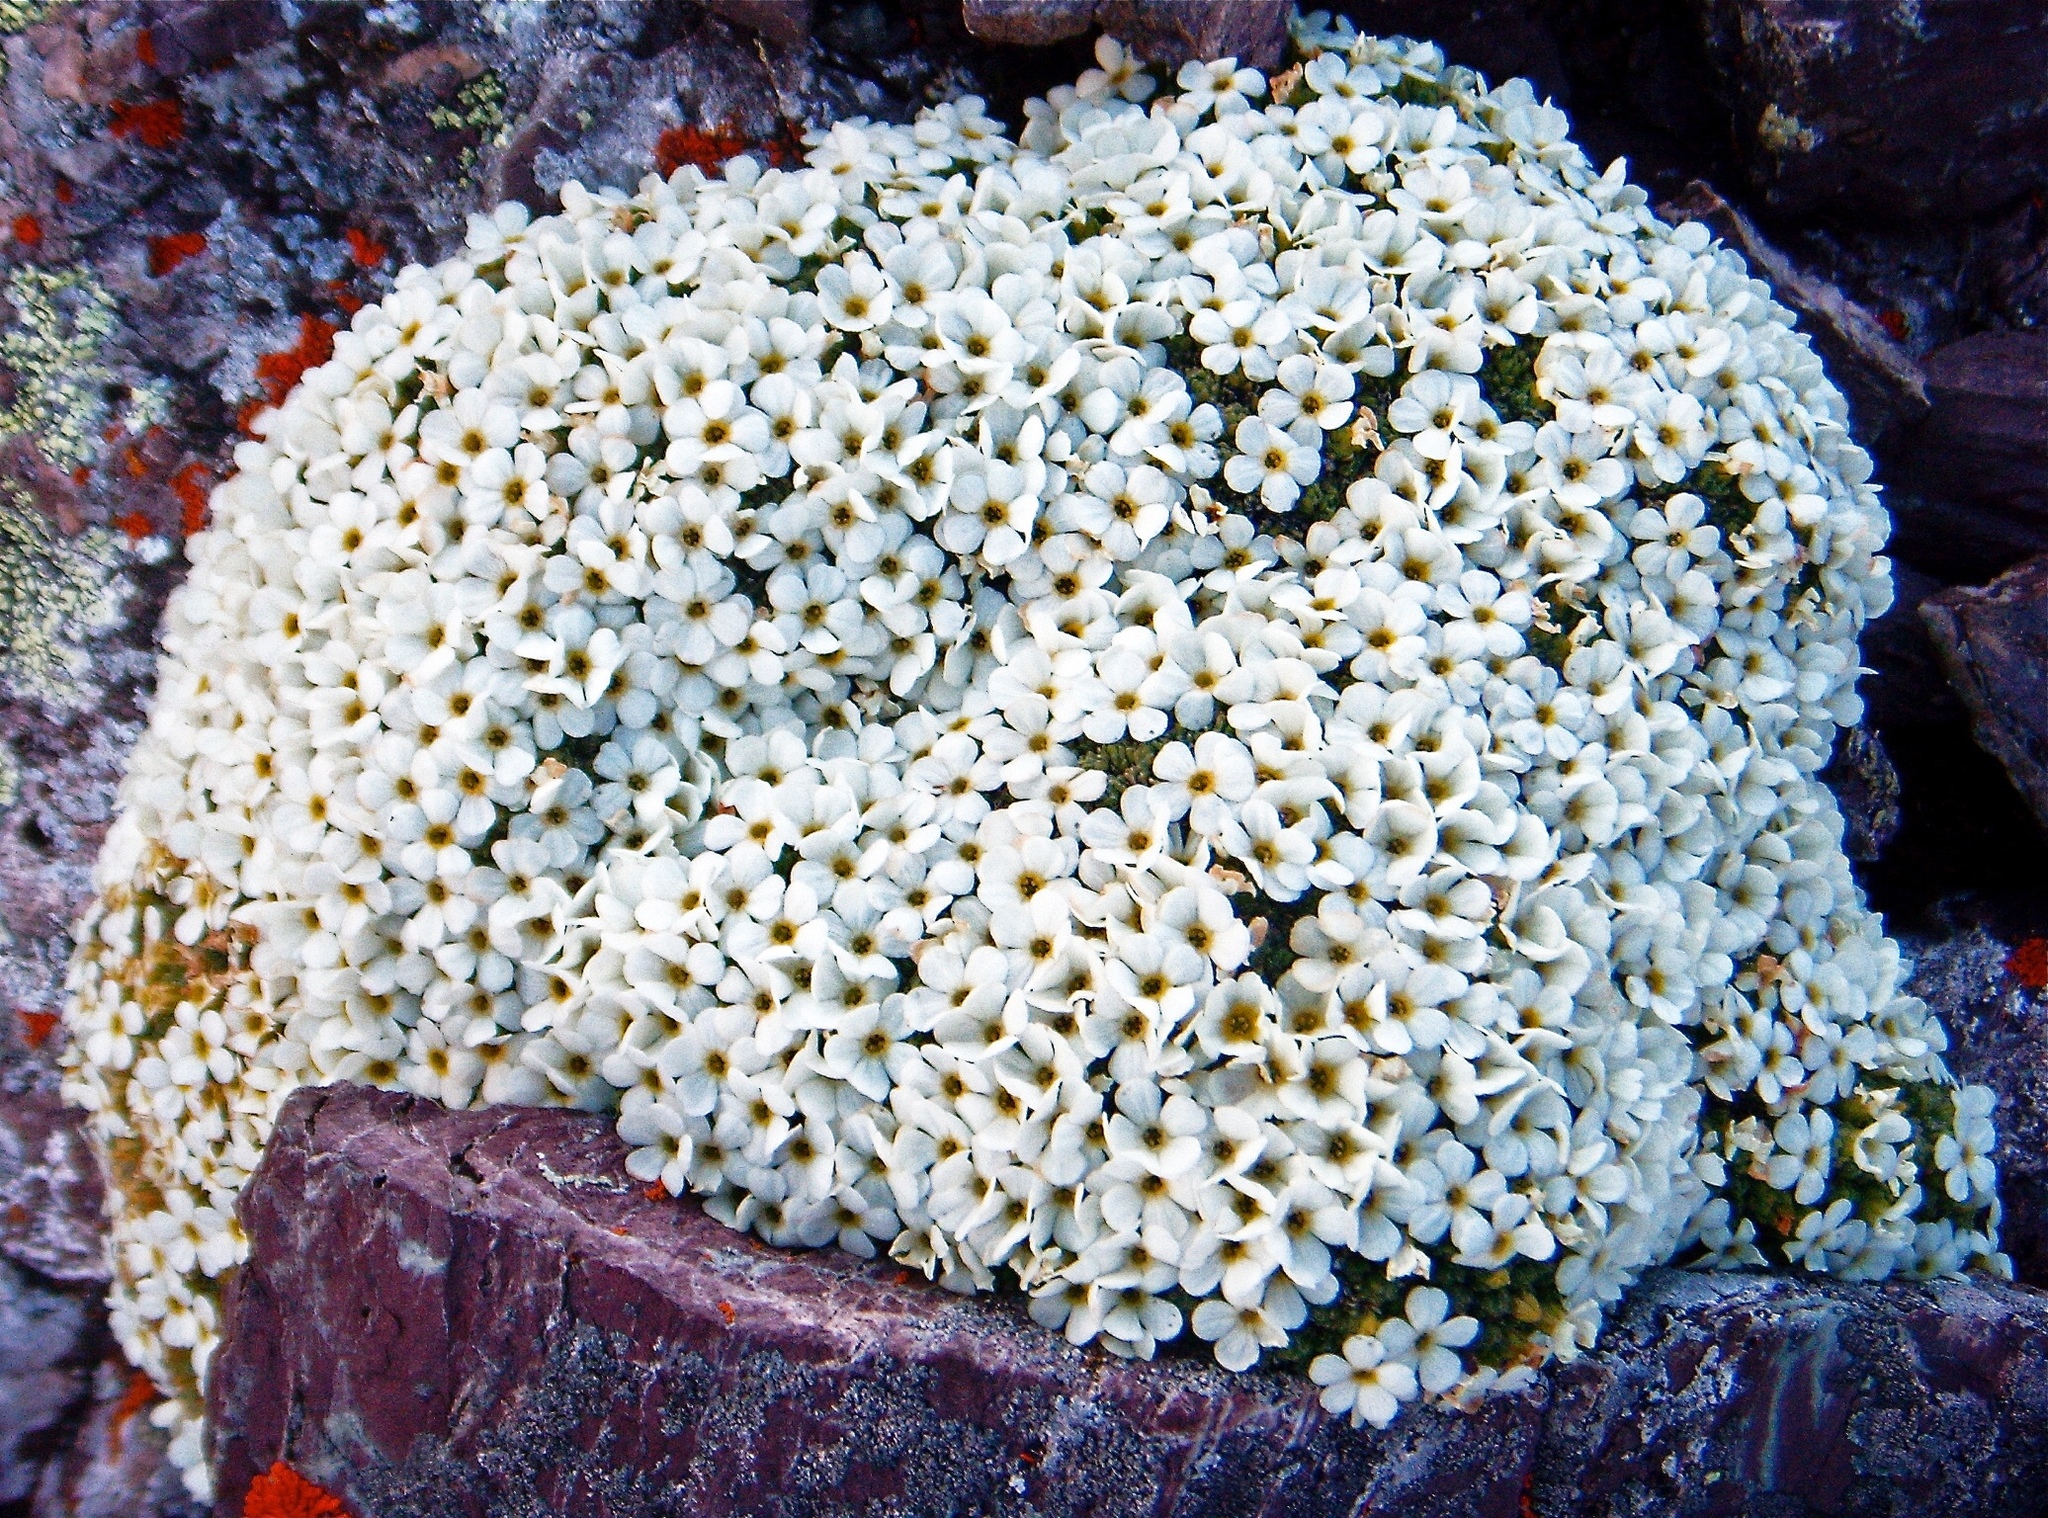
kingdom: Plantae
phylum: Tracheophyta
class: Magnoliopsida
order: Ericales
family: Primulaceae
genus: Androsace
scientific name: Androsace helvetica
